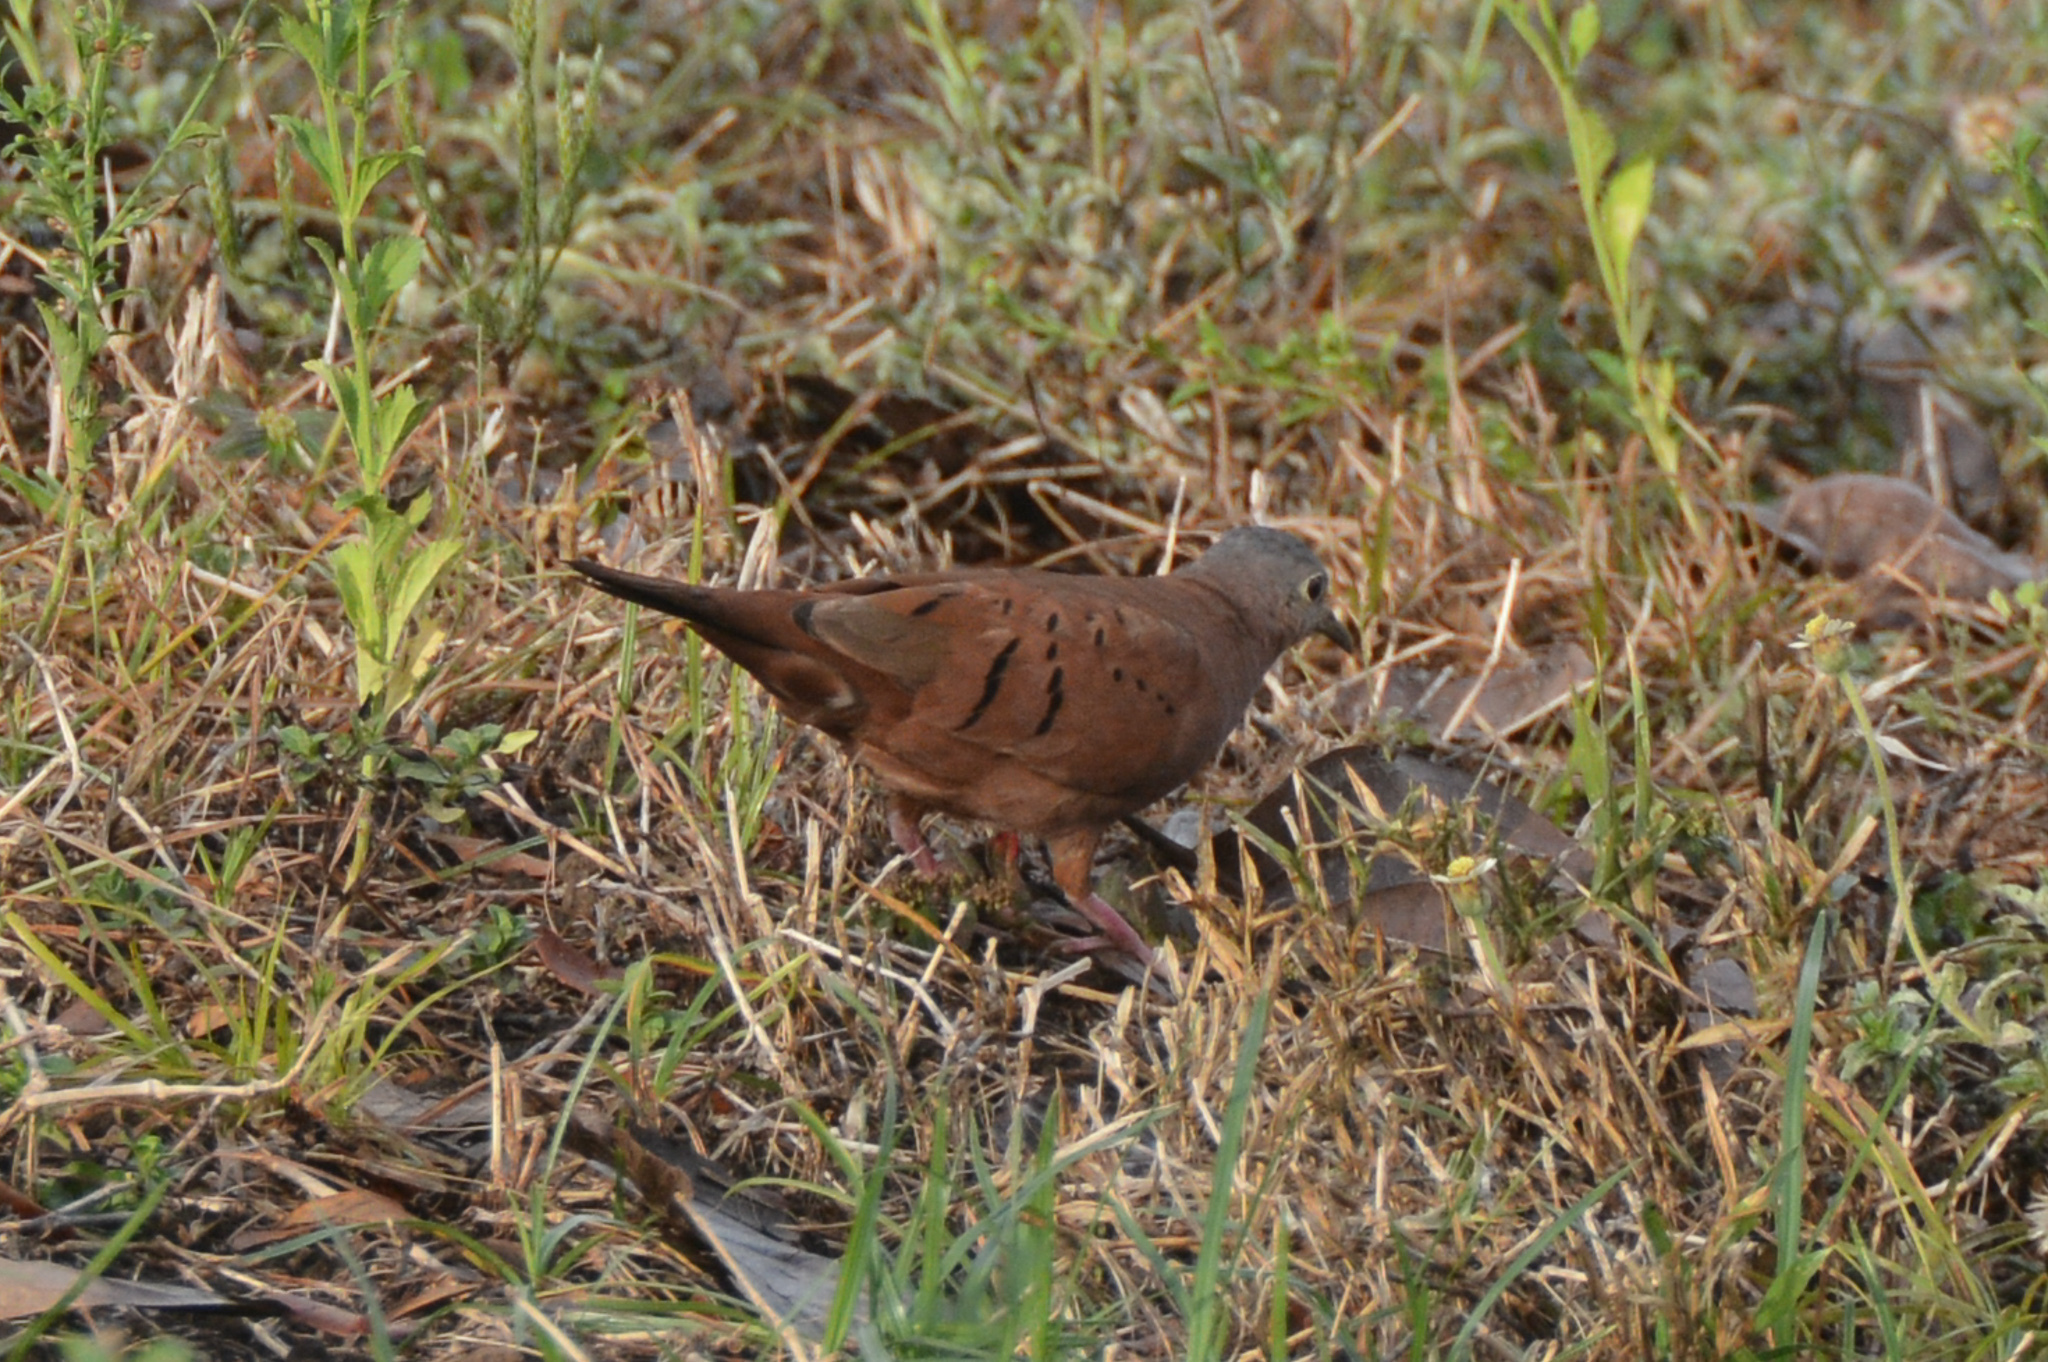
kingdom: Animalia
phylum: Chordata
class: Aves
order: Columbiformes
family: Columbidae
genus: Columbina
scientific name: Columbina talpacoti
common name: Ruddy ground dove
